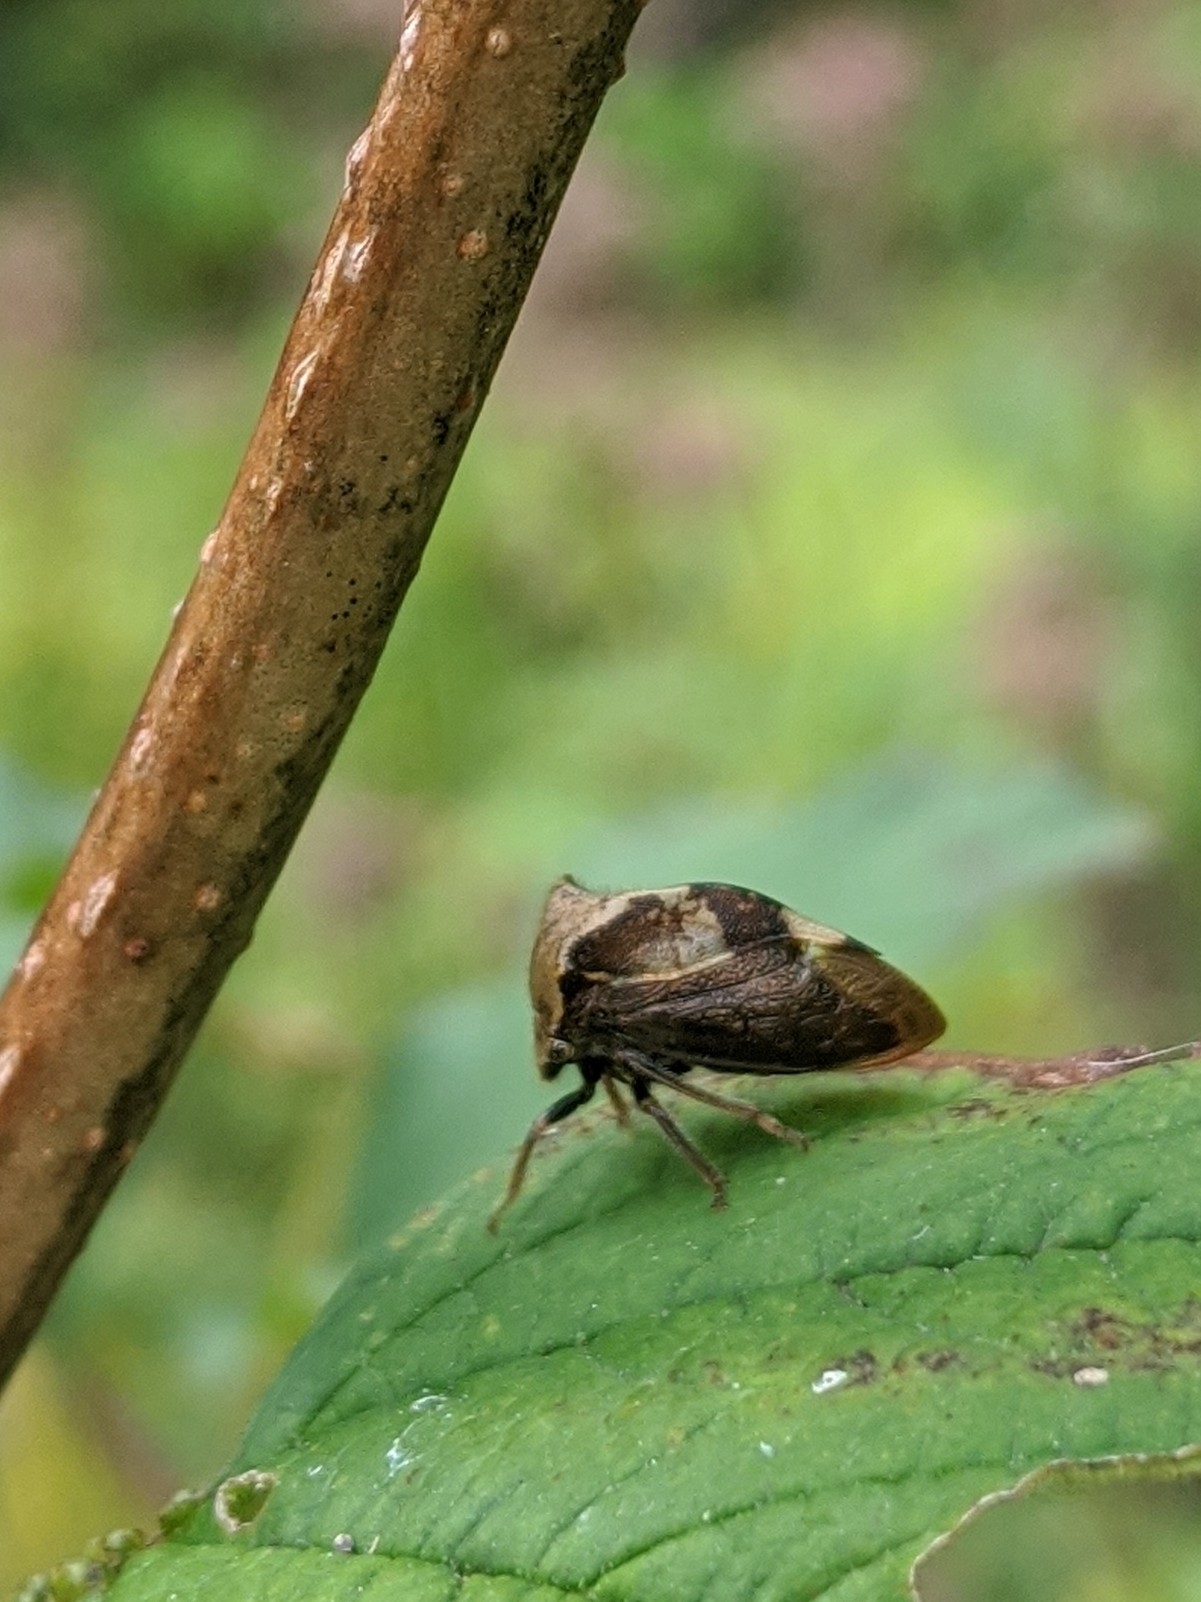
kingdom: Animalia
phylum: Arthropoda
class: Insecta
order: Hemiptera
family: Membracidae
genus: Stictocephala
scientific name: Stictocephala diceros
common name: Two-horned treehopper
